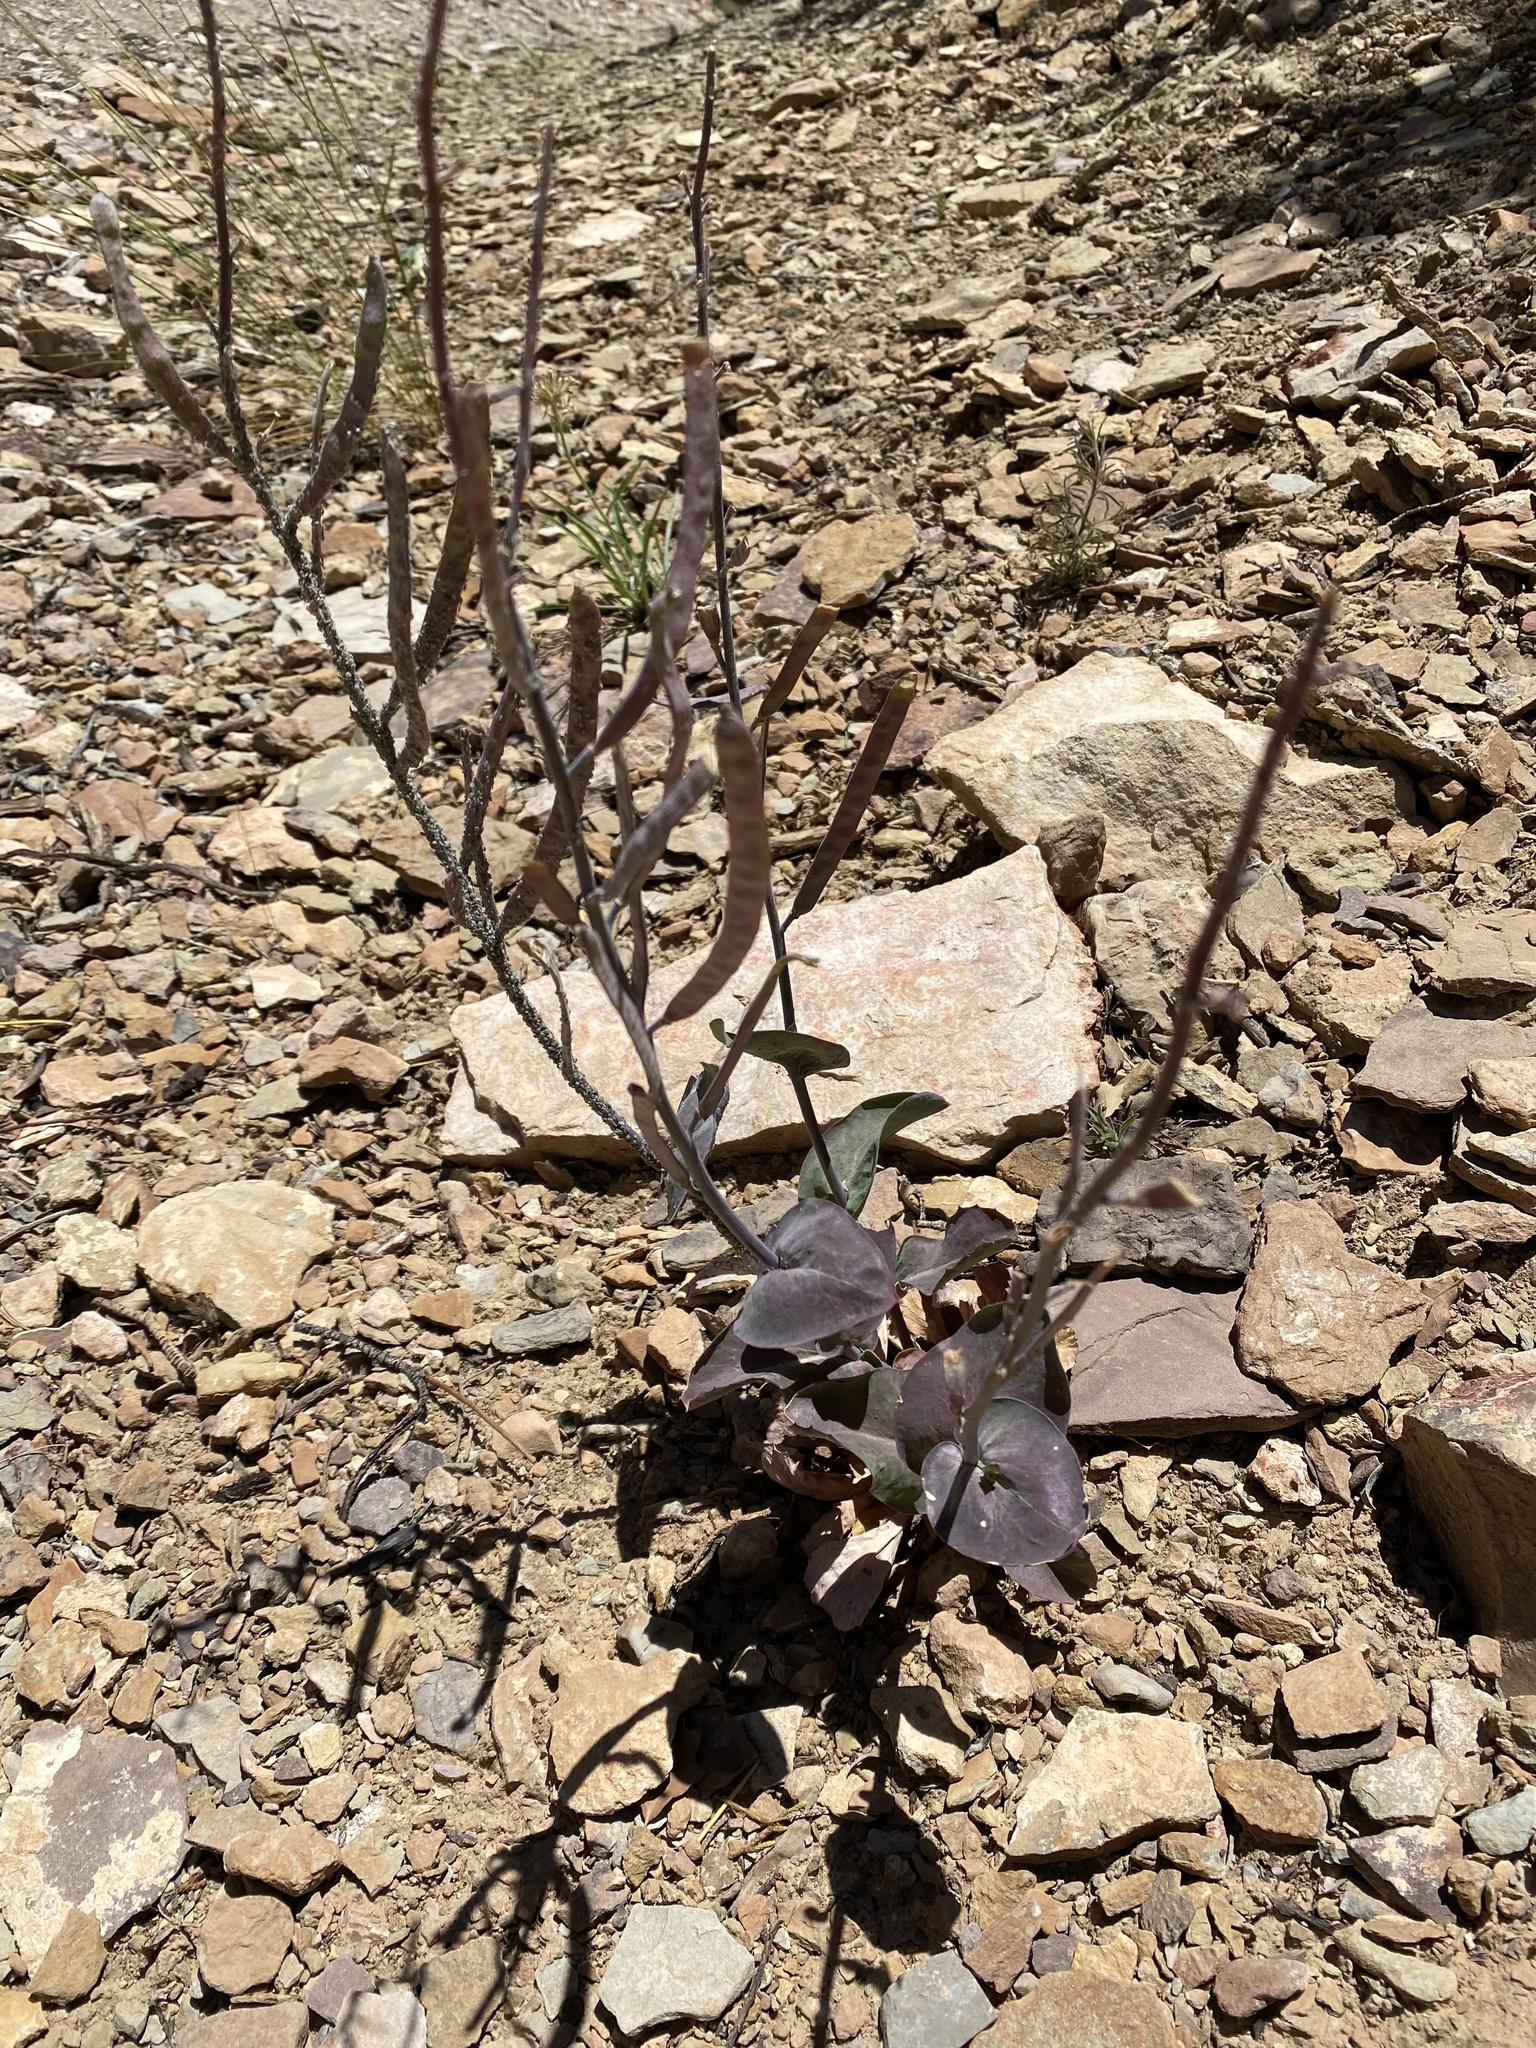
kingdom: Plantae
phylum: Tracheophyta
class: Magnoliopsida
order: Brassicales
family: Brassicaceae
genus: Streptanthus
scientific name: Streptanthus cordatus
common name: Heart-leaf jewel-flower
